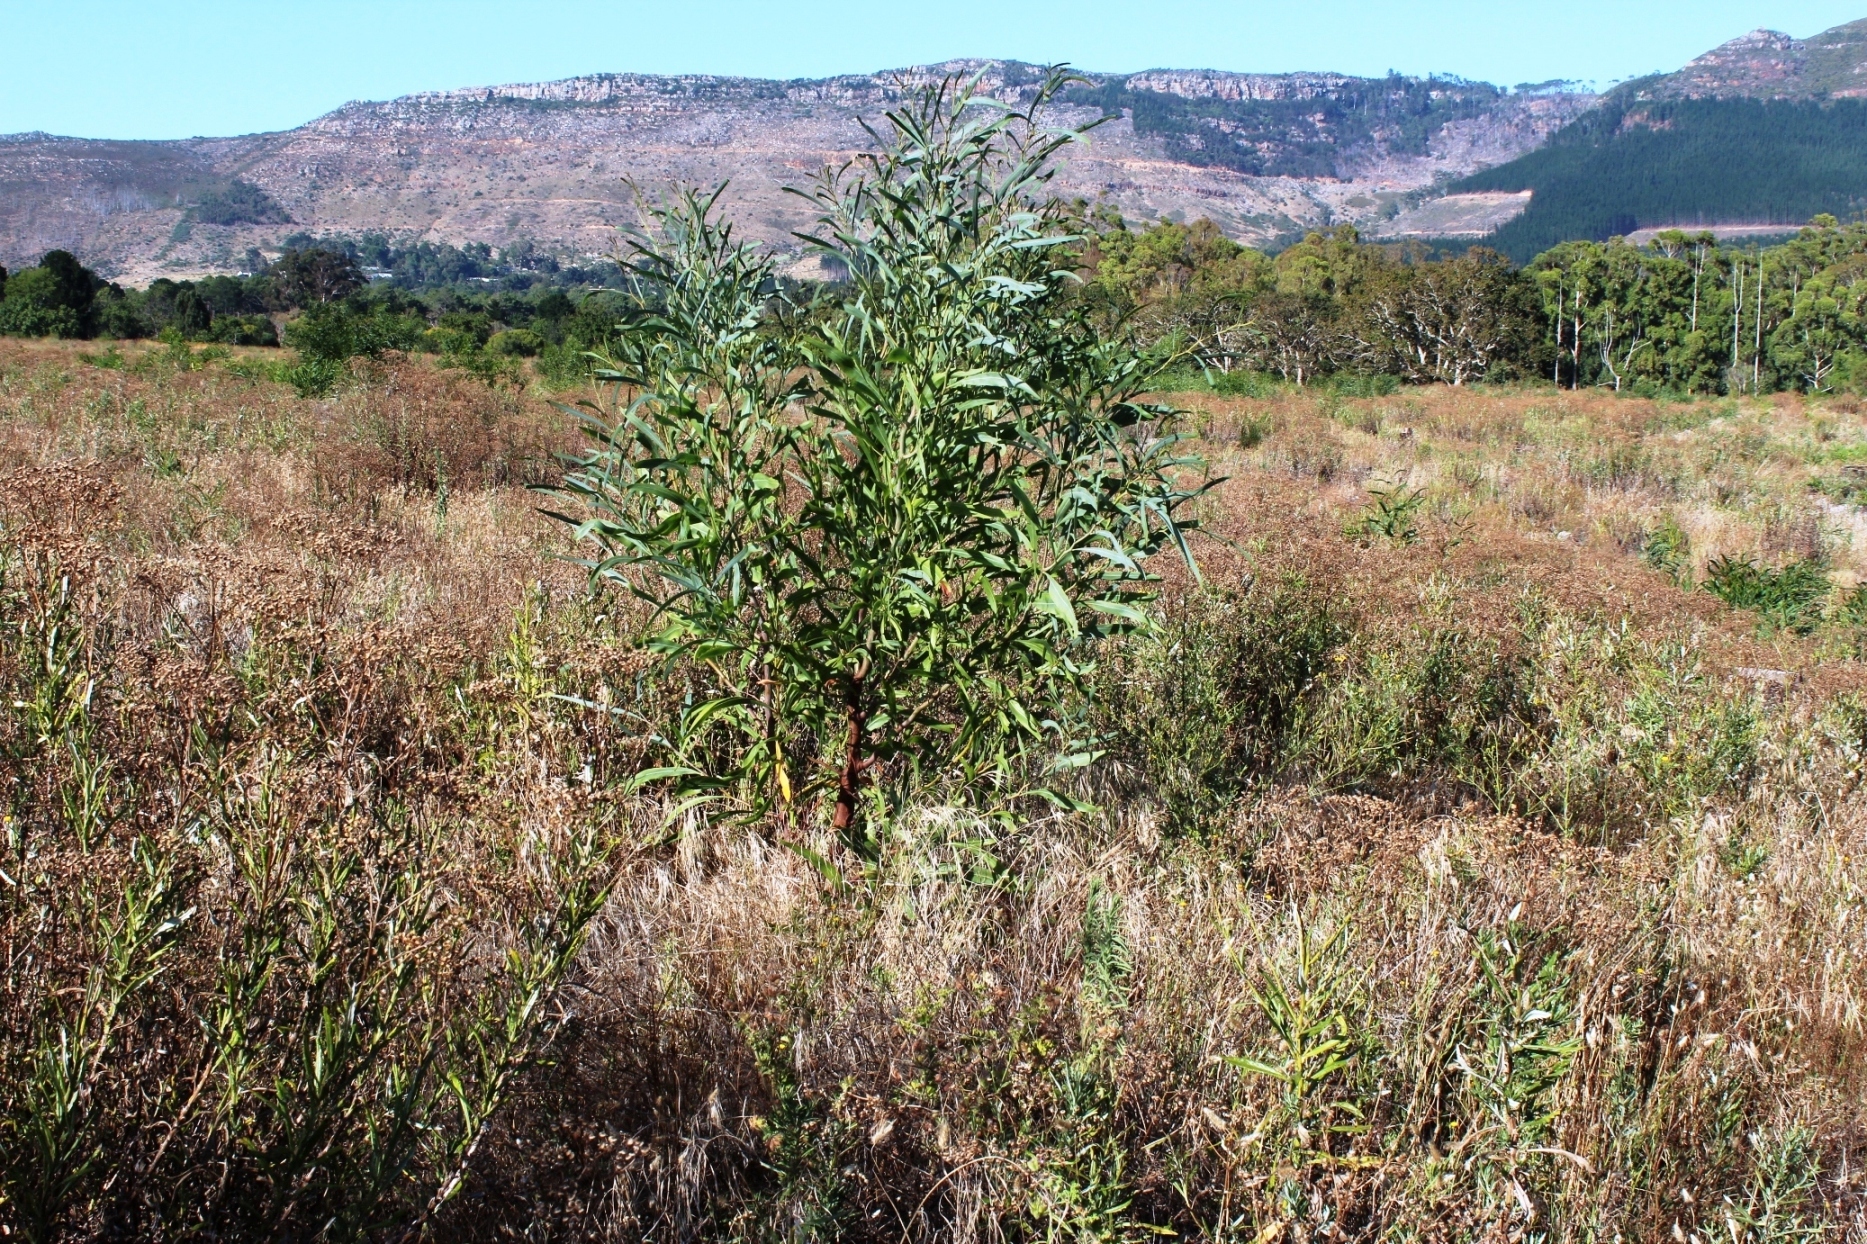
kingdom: Plantae
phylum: Tracheophyta
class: Magnoliopsida
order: Fabales
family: Fabaceae
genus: Acacia
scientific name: Acacia saligna
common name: Orange wattle
